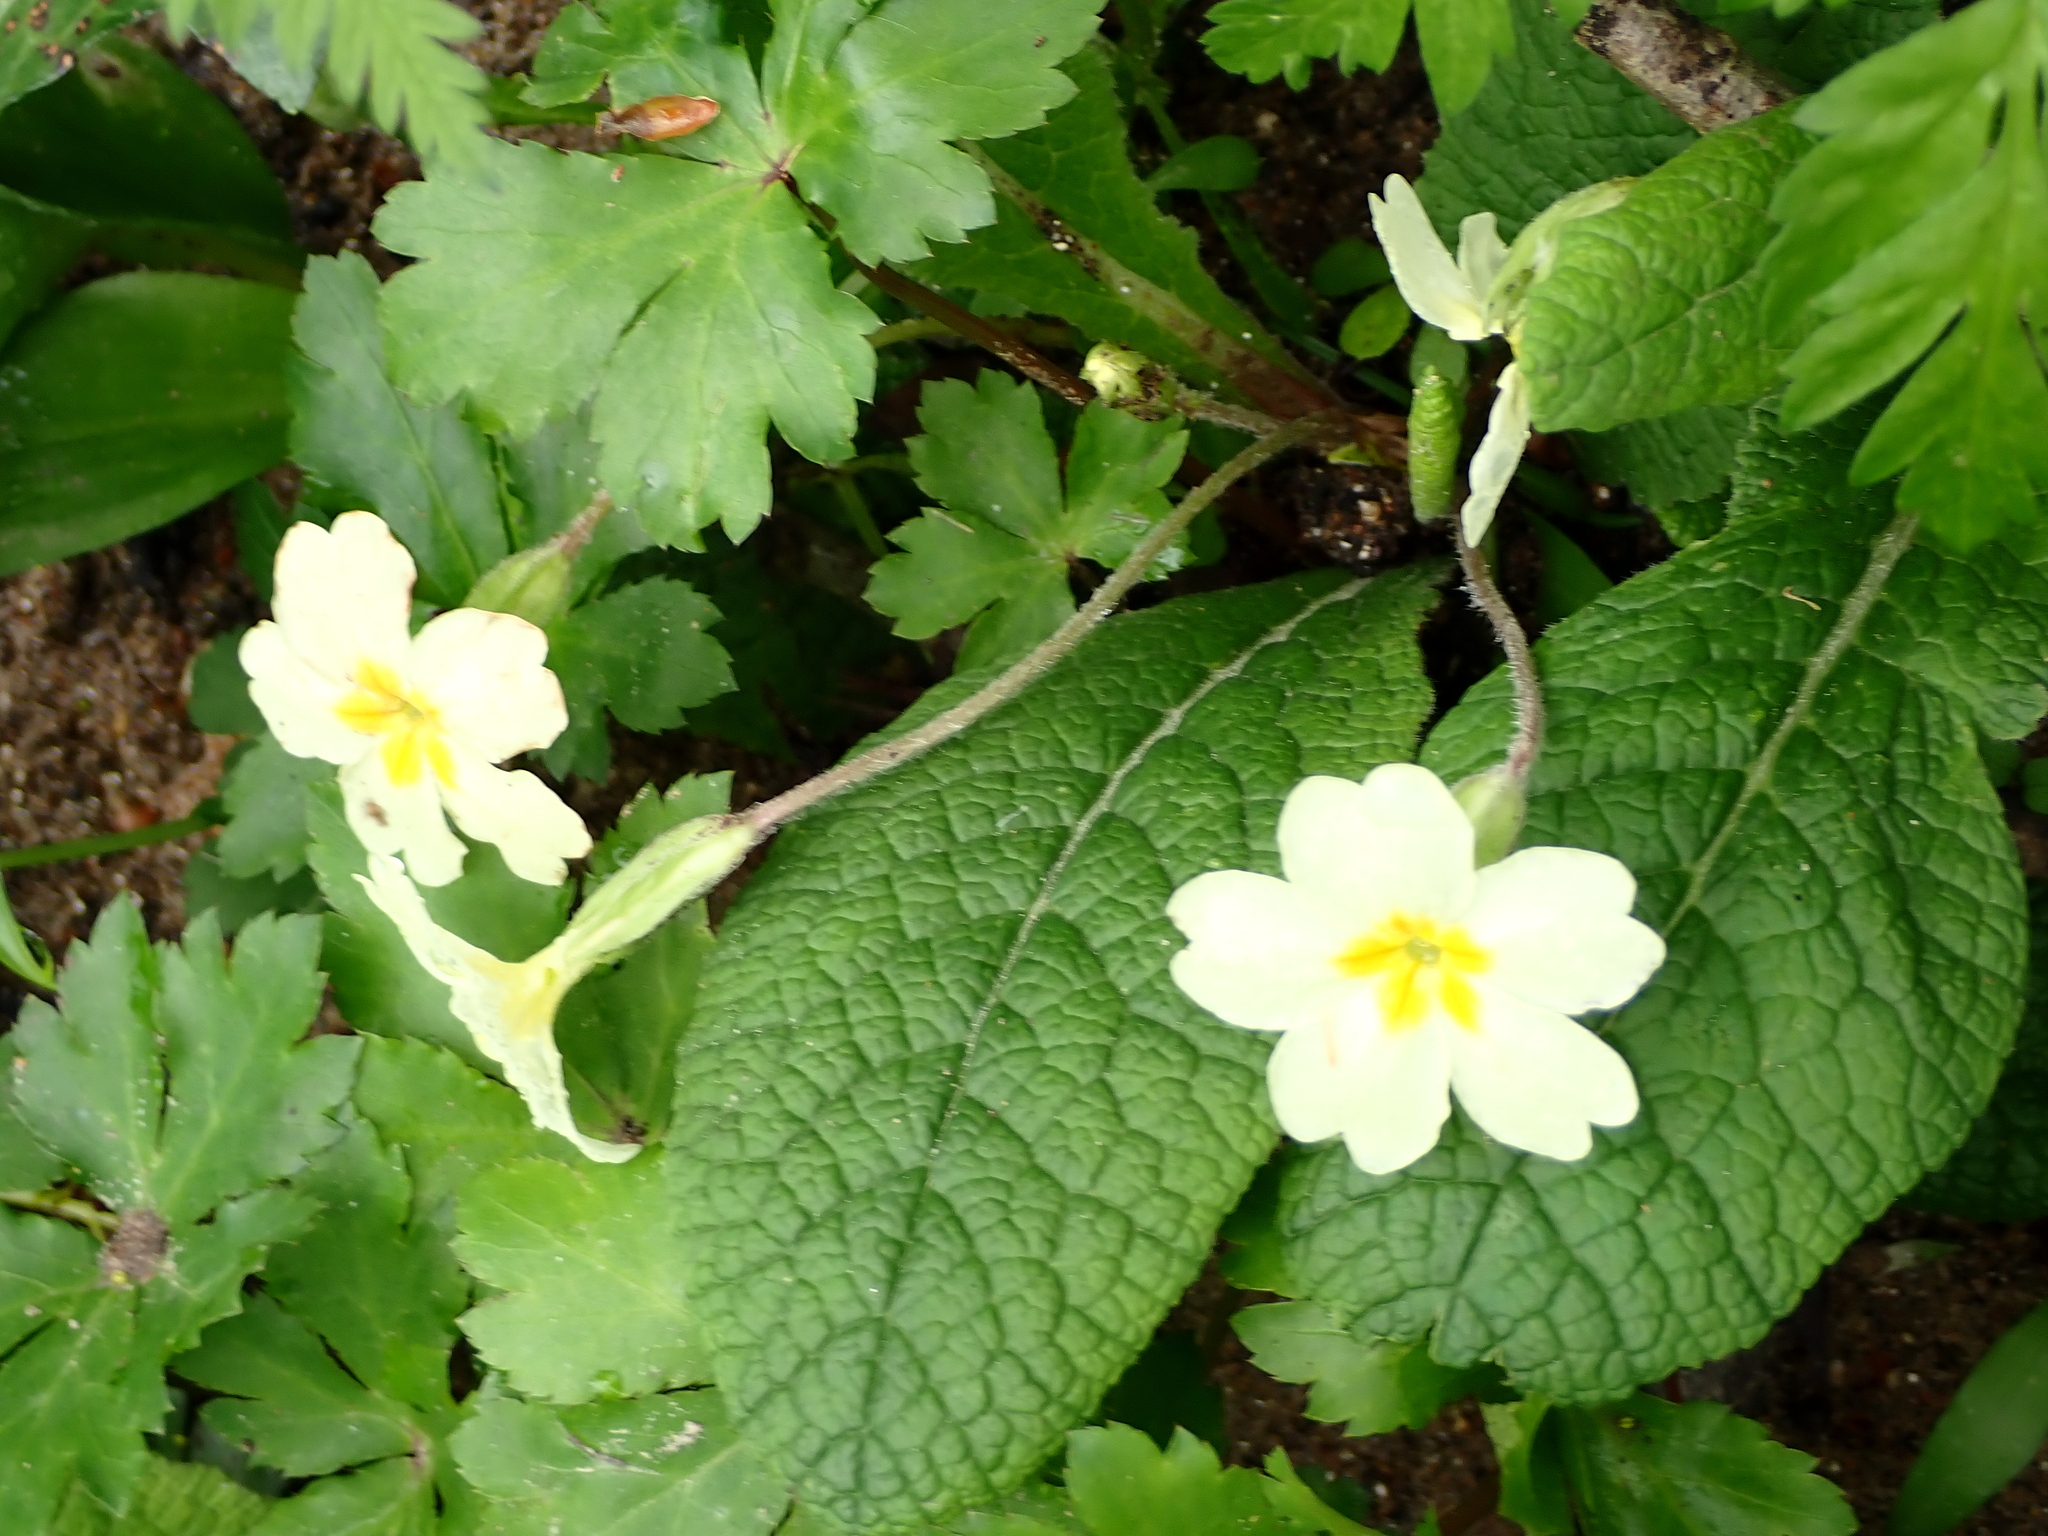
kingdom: Plantae
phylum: Tracheophyta
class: Magnoliopsida
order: Ericales
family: Primulaceae
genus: Primula
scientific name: Primula vulgaris
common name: Primrose
